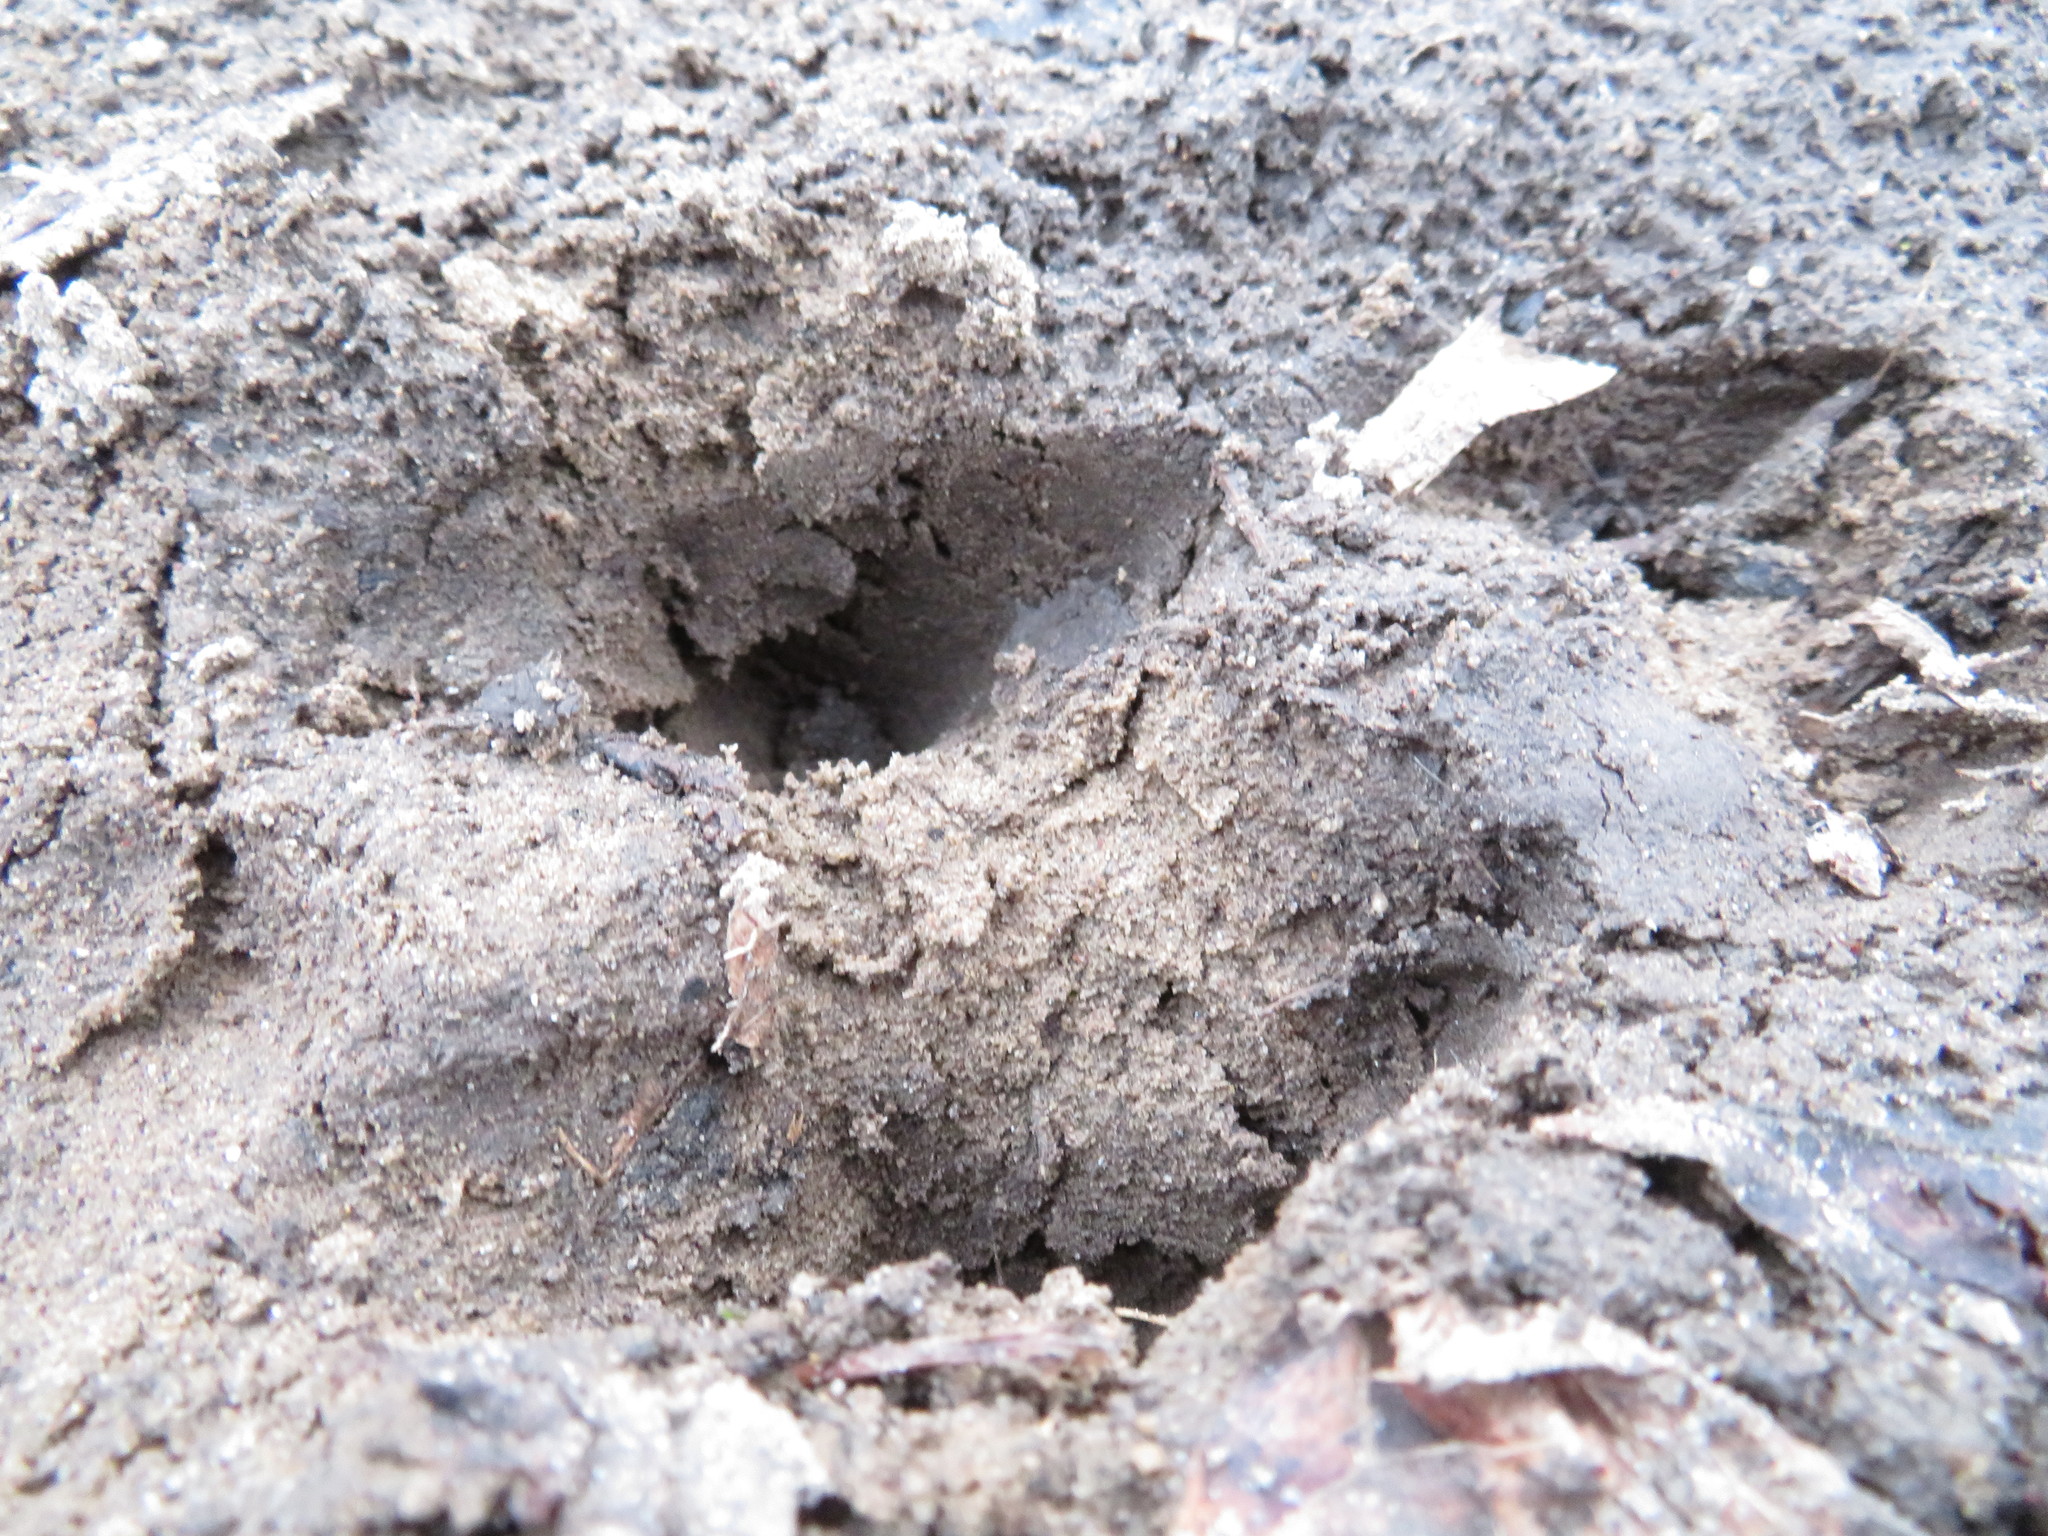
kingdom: Animalia
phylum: Chordata
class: Mammalia
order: Artiodactyla
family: Cervidae
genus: Odocoileus
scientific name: Odocoileus virginianus
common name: White-tailed deer
